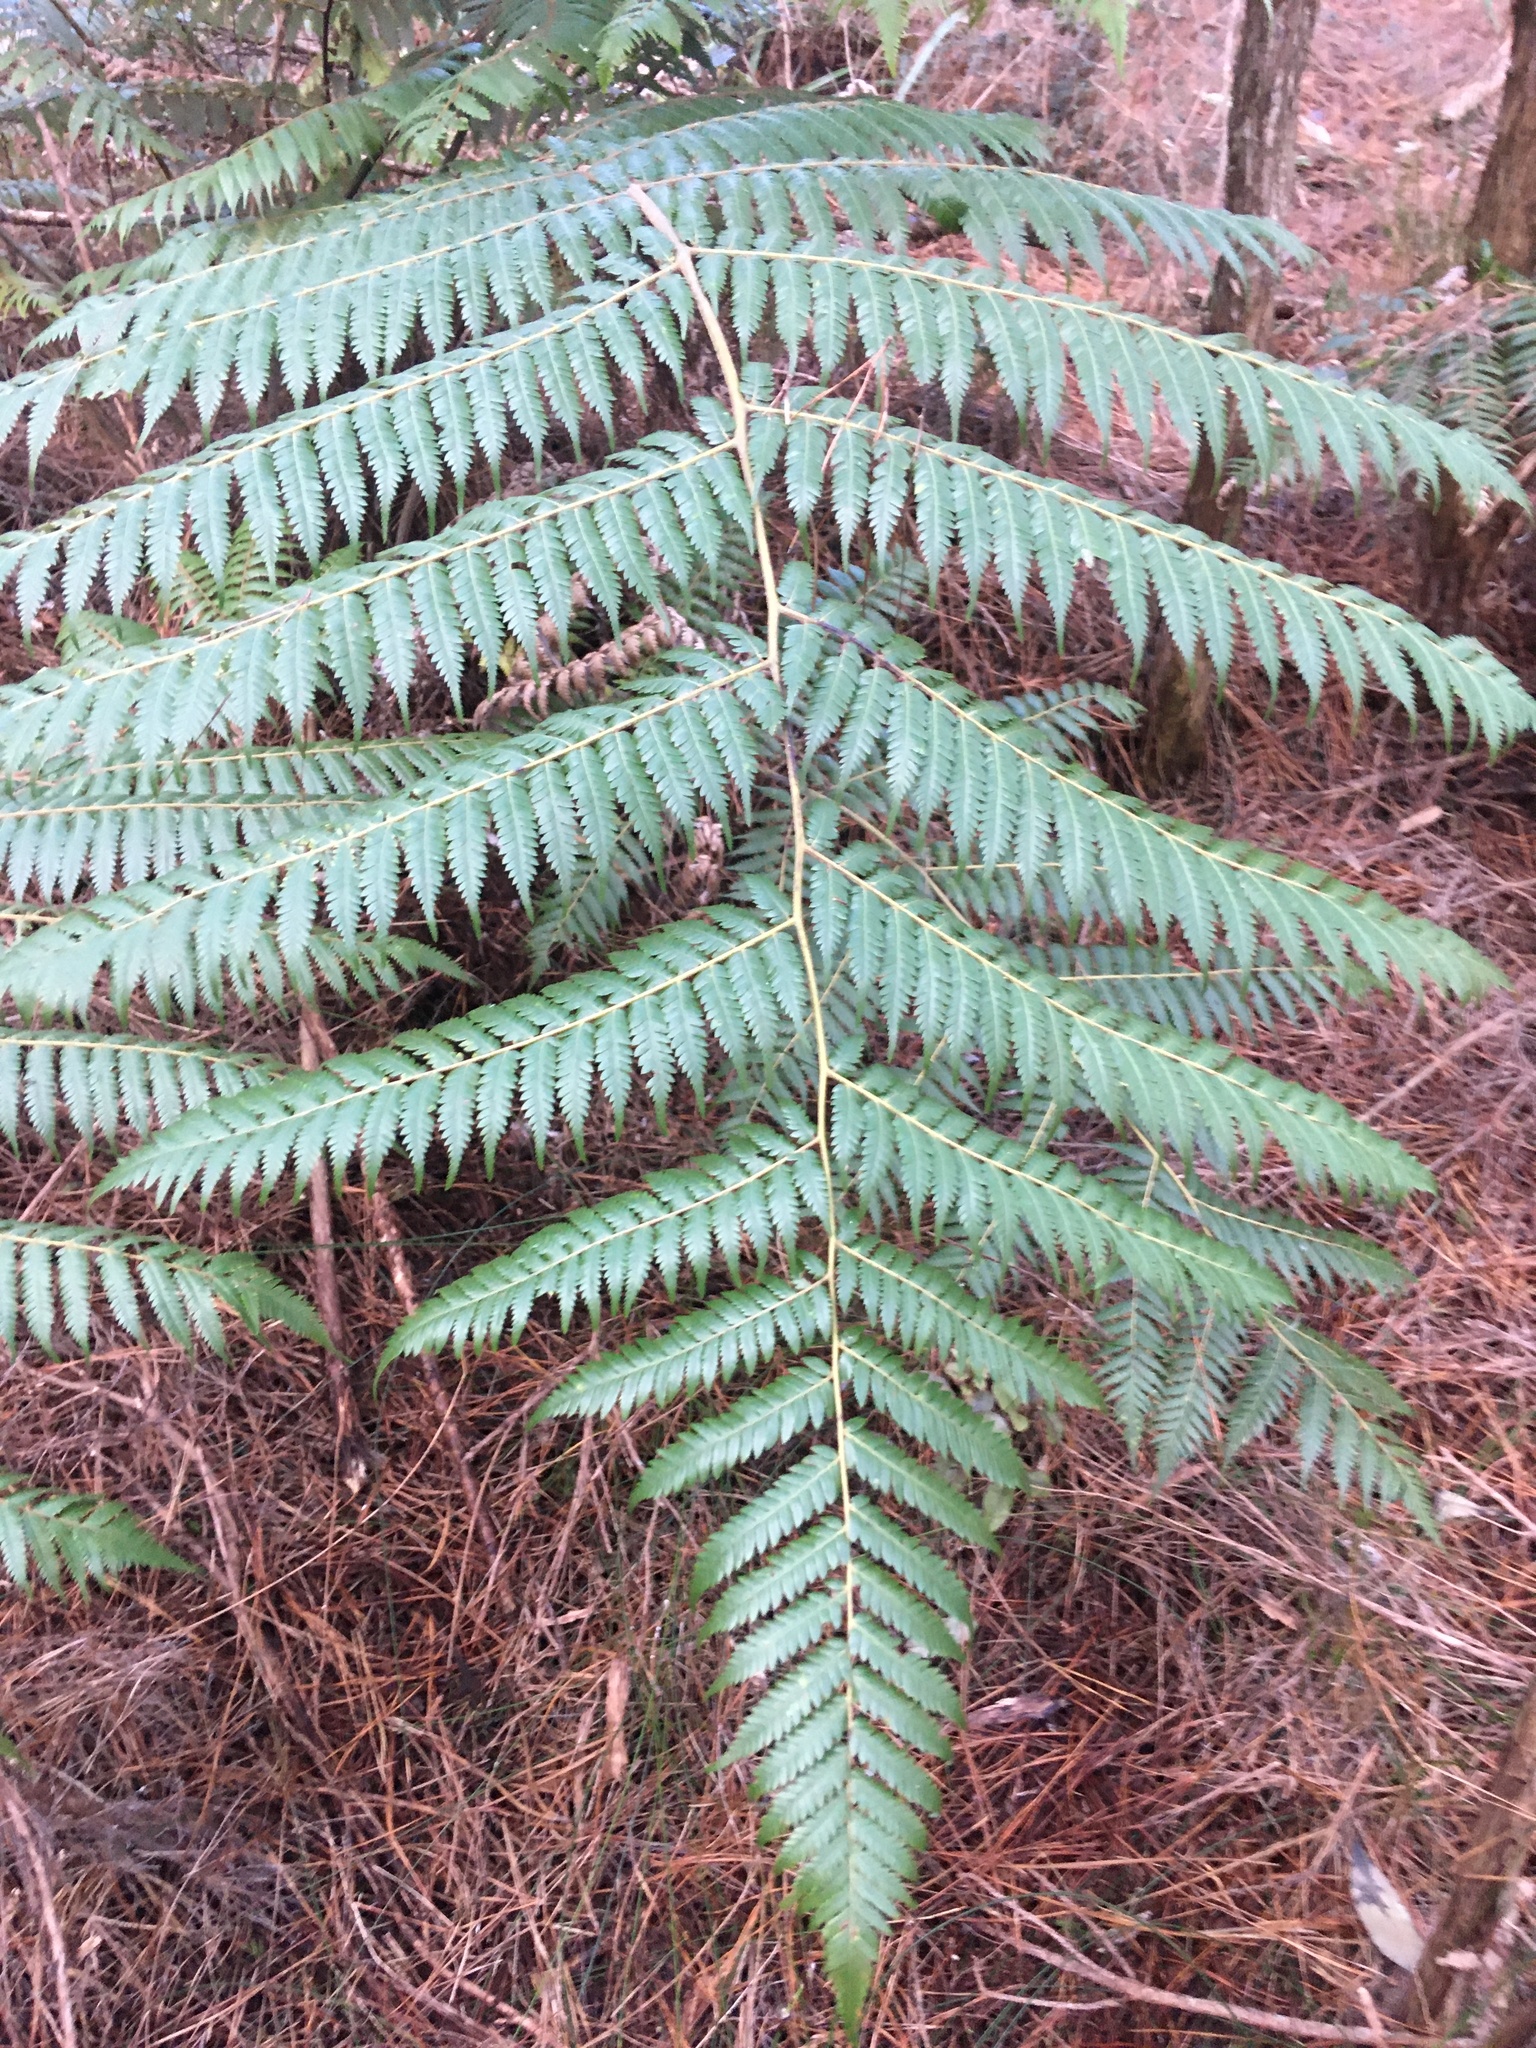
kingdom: Plantae
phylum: Tracheophyta
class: Polypodiopsida
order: Cyatheales
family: Cyatheaceae
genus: Alsophila
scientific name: Alsophila dealbata
